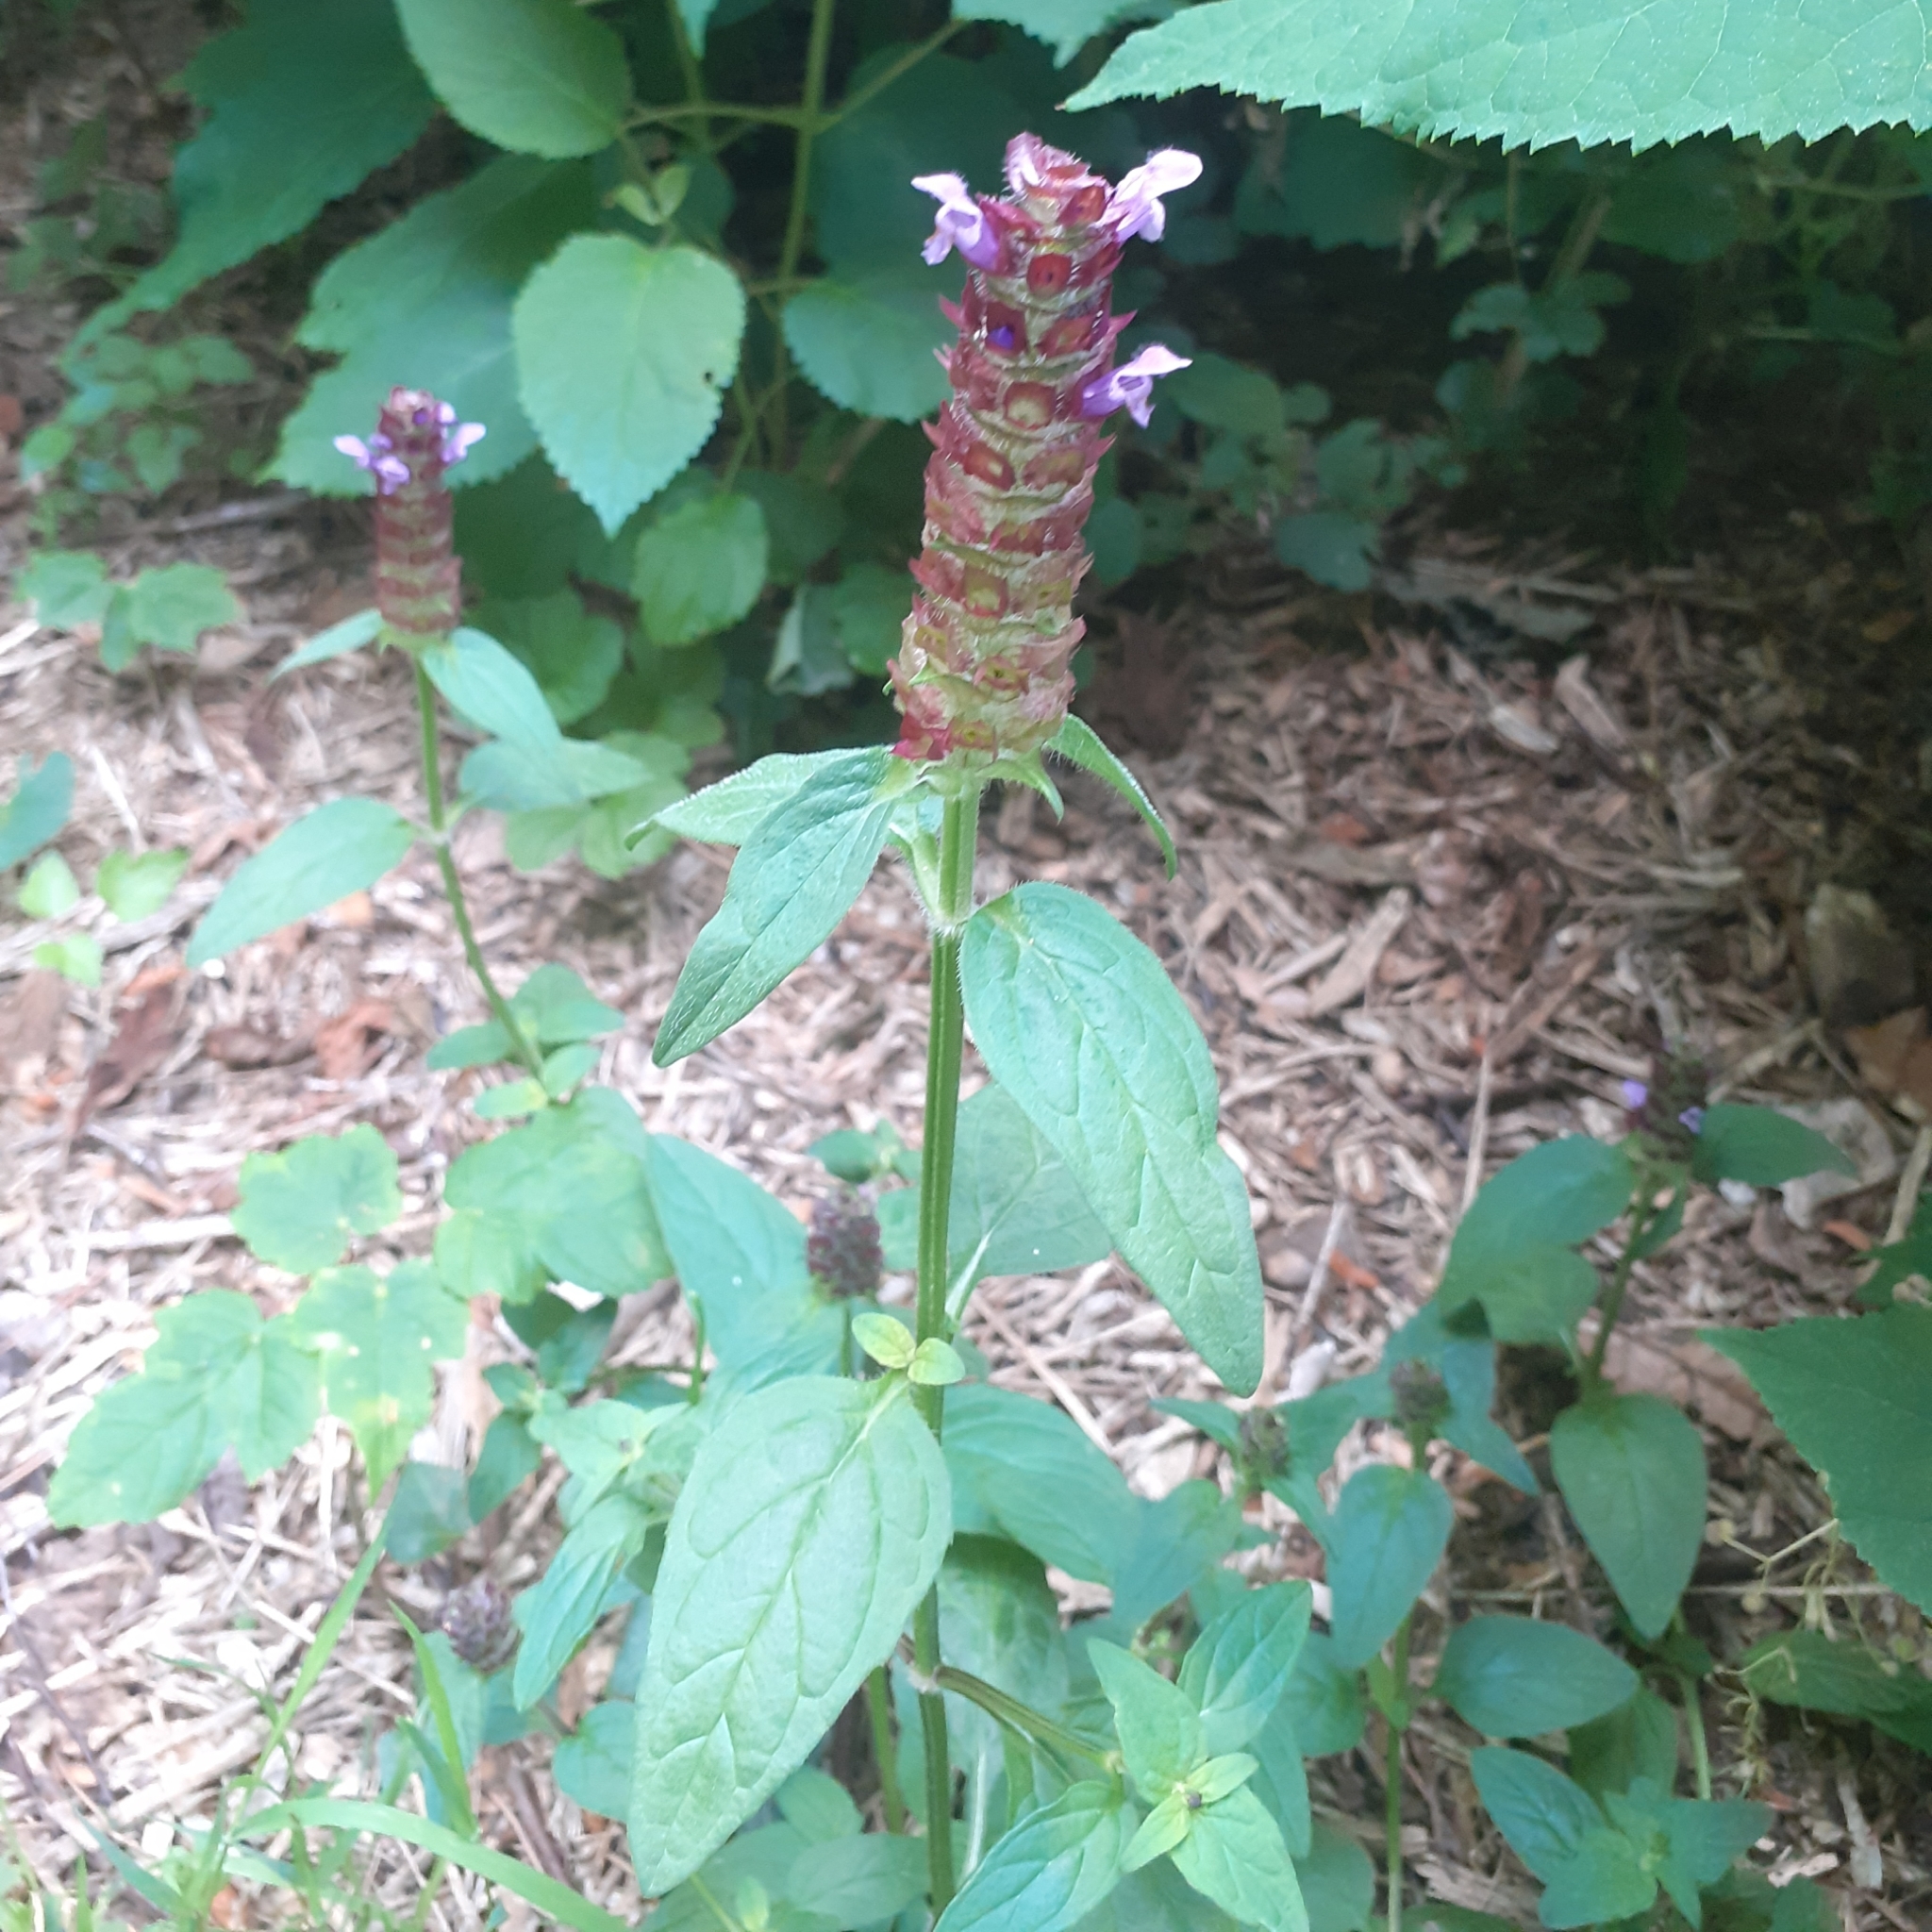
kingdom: Plantae
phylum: Tracheophyta
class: Magnoliopsida
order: Lamiales
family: Lamiaceae
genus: Prunella
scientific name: Prunella vulgaris
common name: Heal-all
